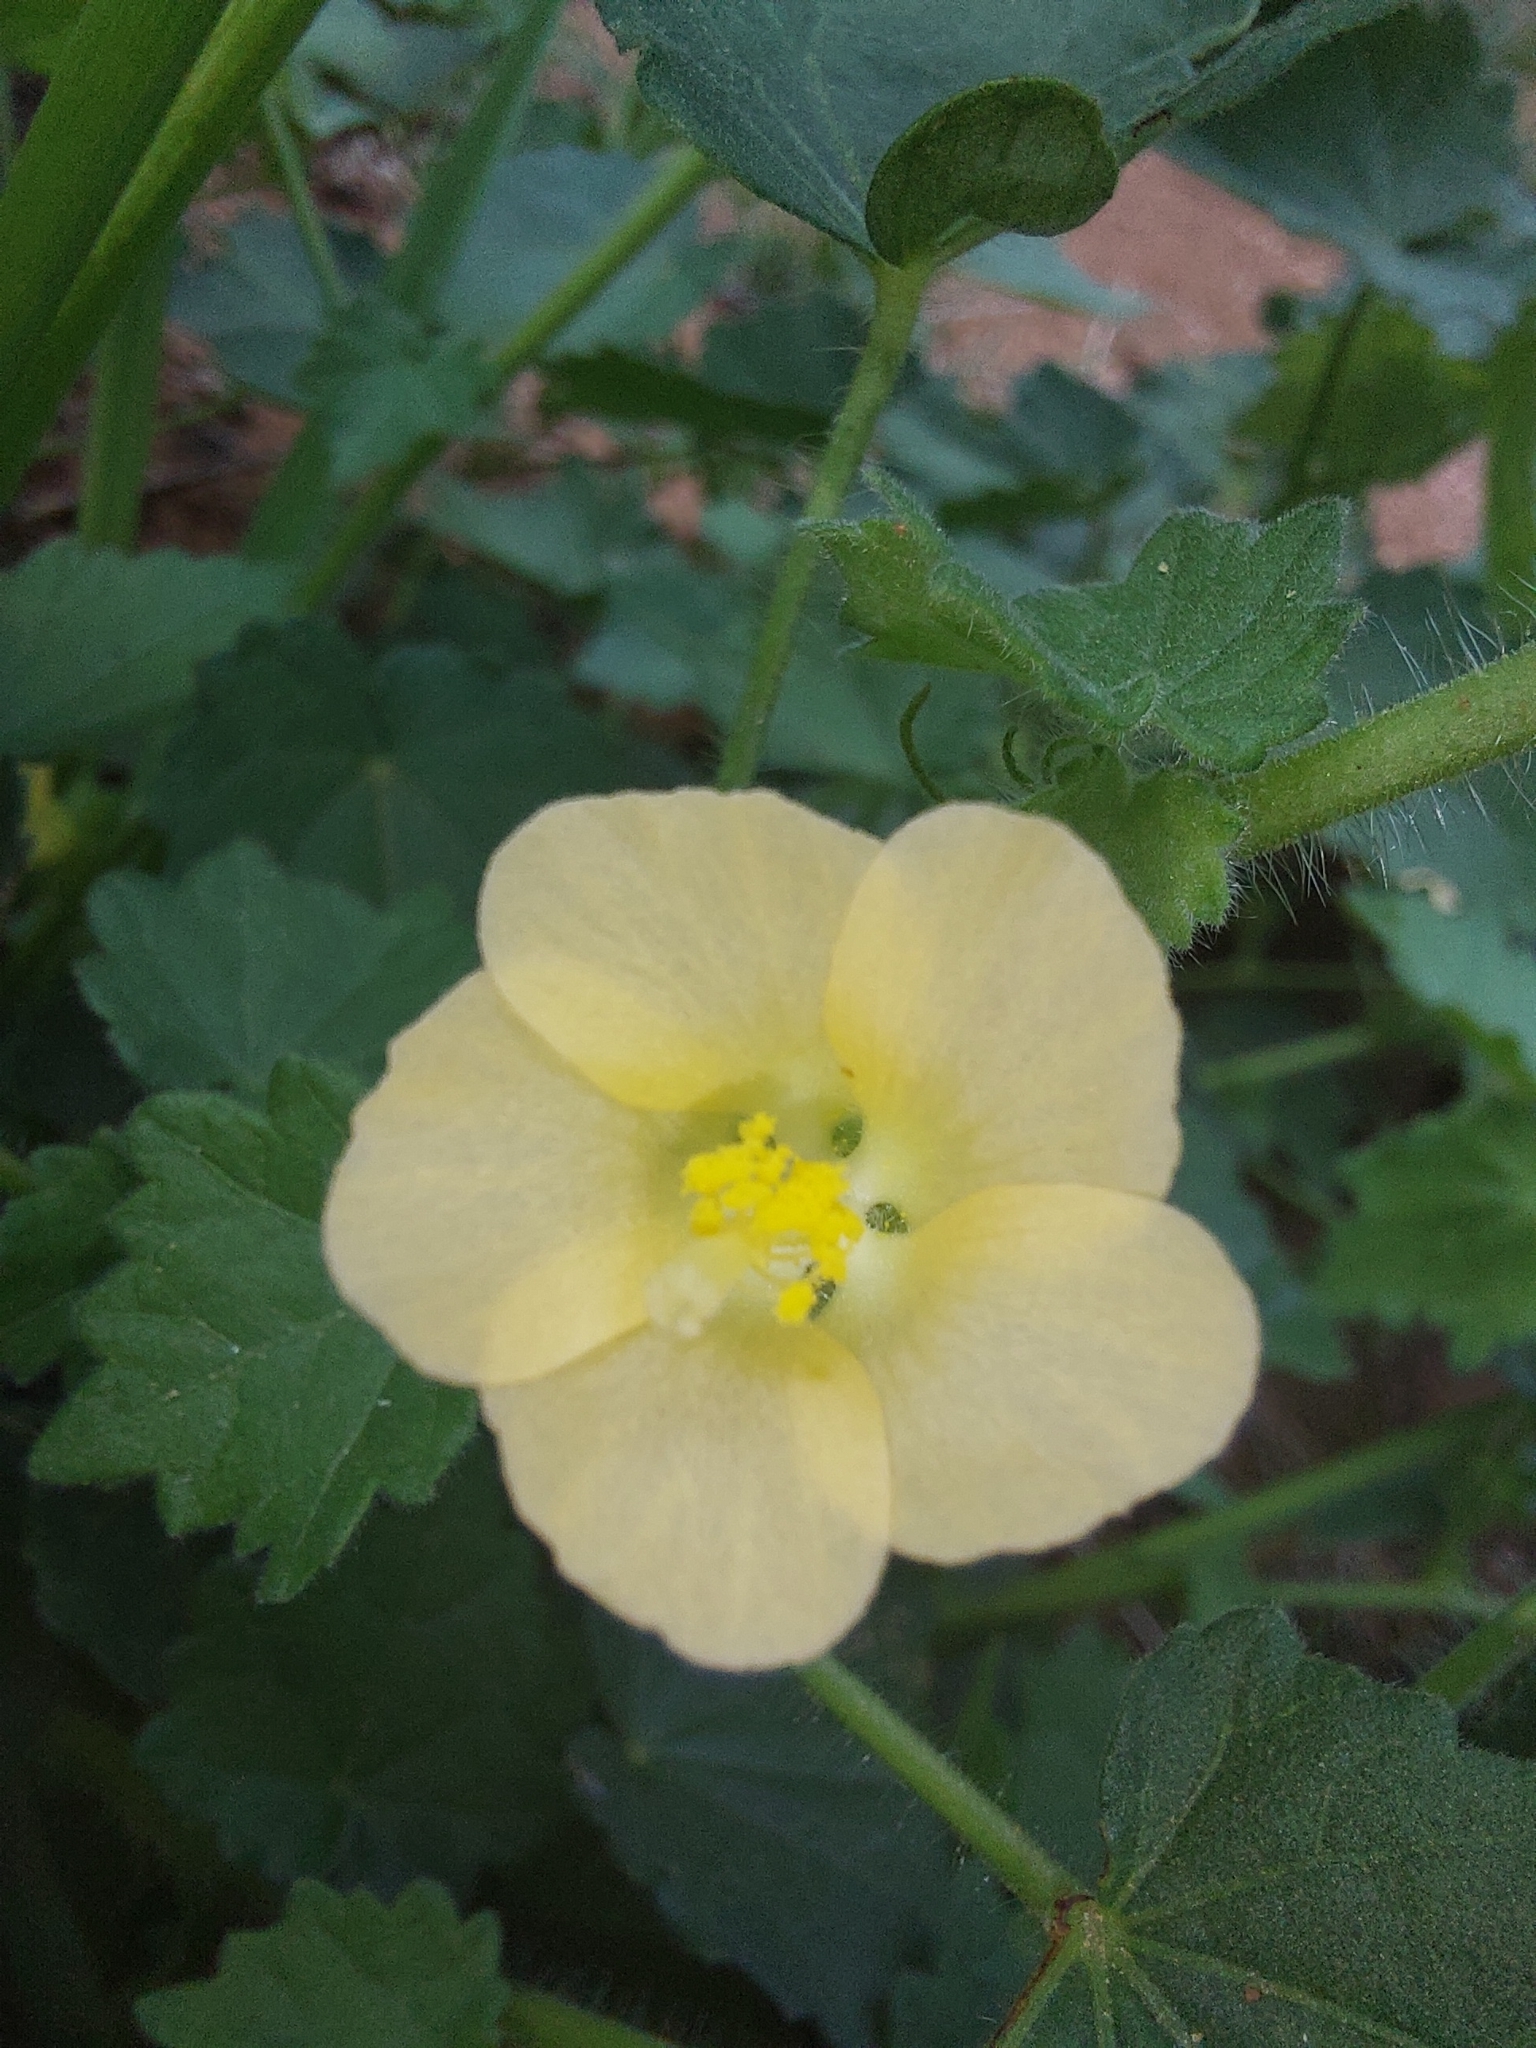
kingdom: Plantae
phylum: Tracheophyta
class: Magnoliopsida
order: Malvales
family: Malvaceae
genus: Pavonia
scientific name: Pavonia burchellii
